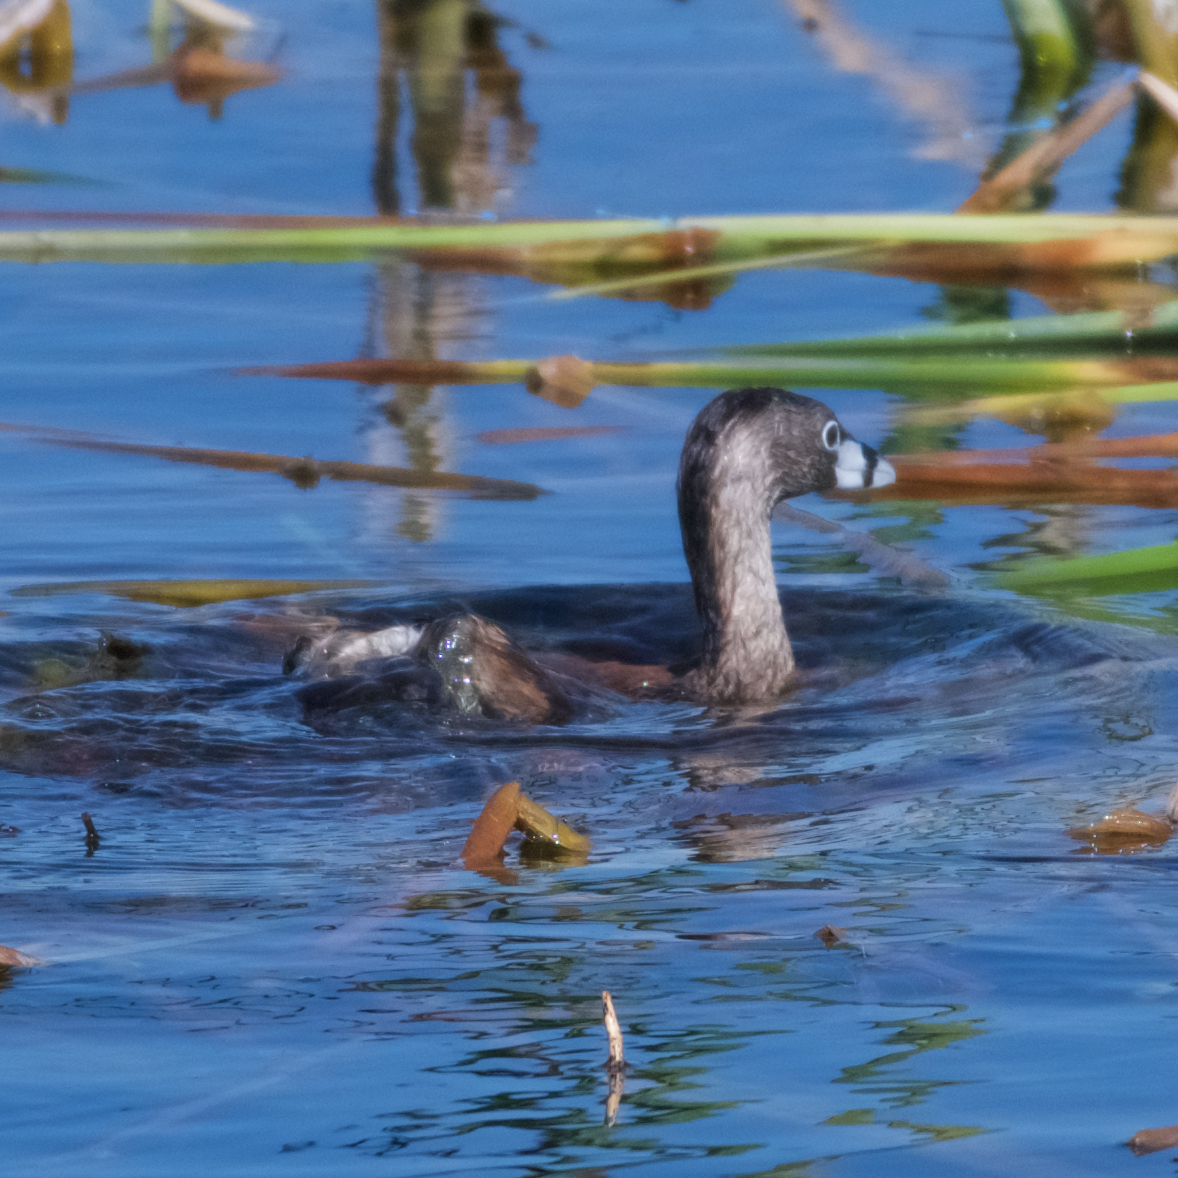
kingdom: Animalia
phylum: Chordata
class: Aves
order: Podicipediformes
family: Podicipedidae
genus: Podilymbus
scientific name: Podilymbus podiceps
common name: Pied-billed grebe
